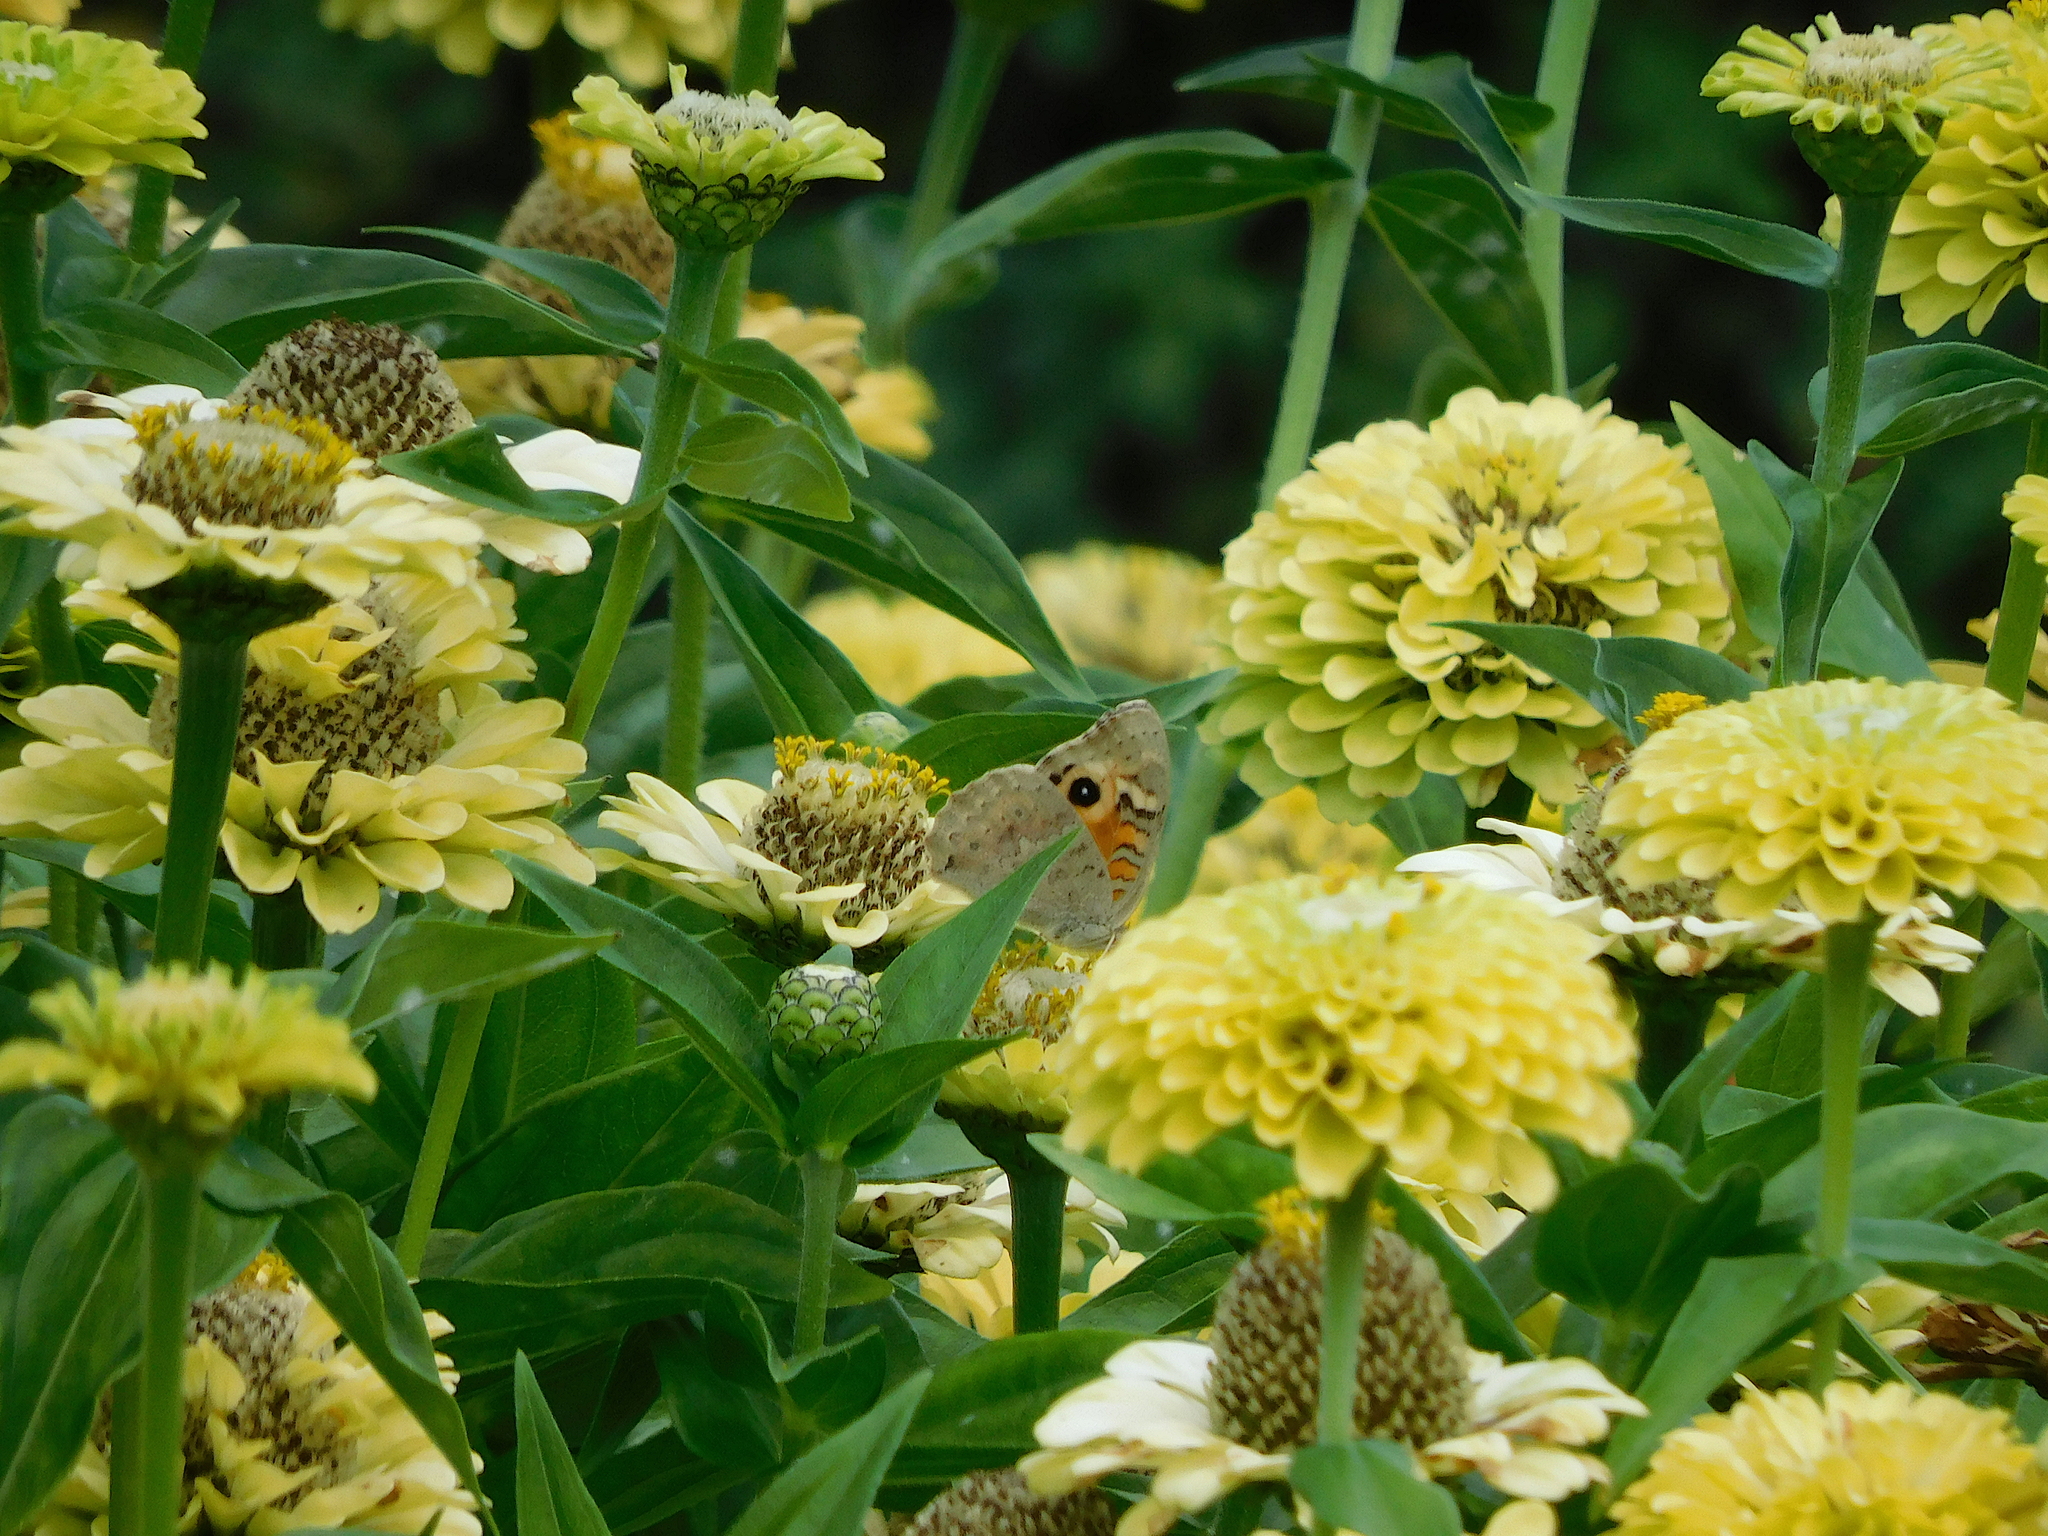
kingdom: Animalia
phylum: Arthropoda
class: Insecta
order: Lepidoptera
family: Nymphalidae
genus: Junonia
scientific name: Junonia villida
